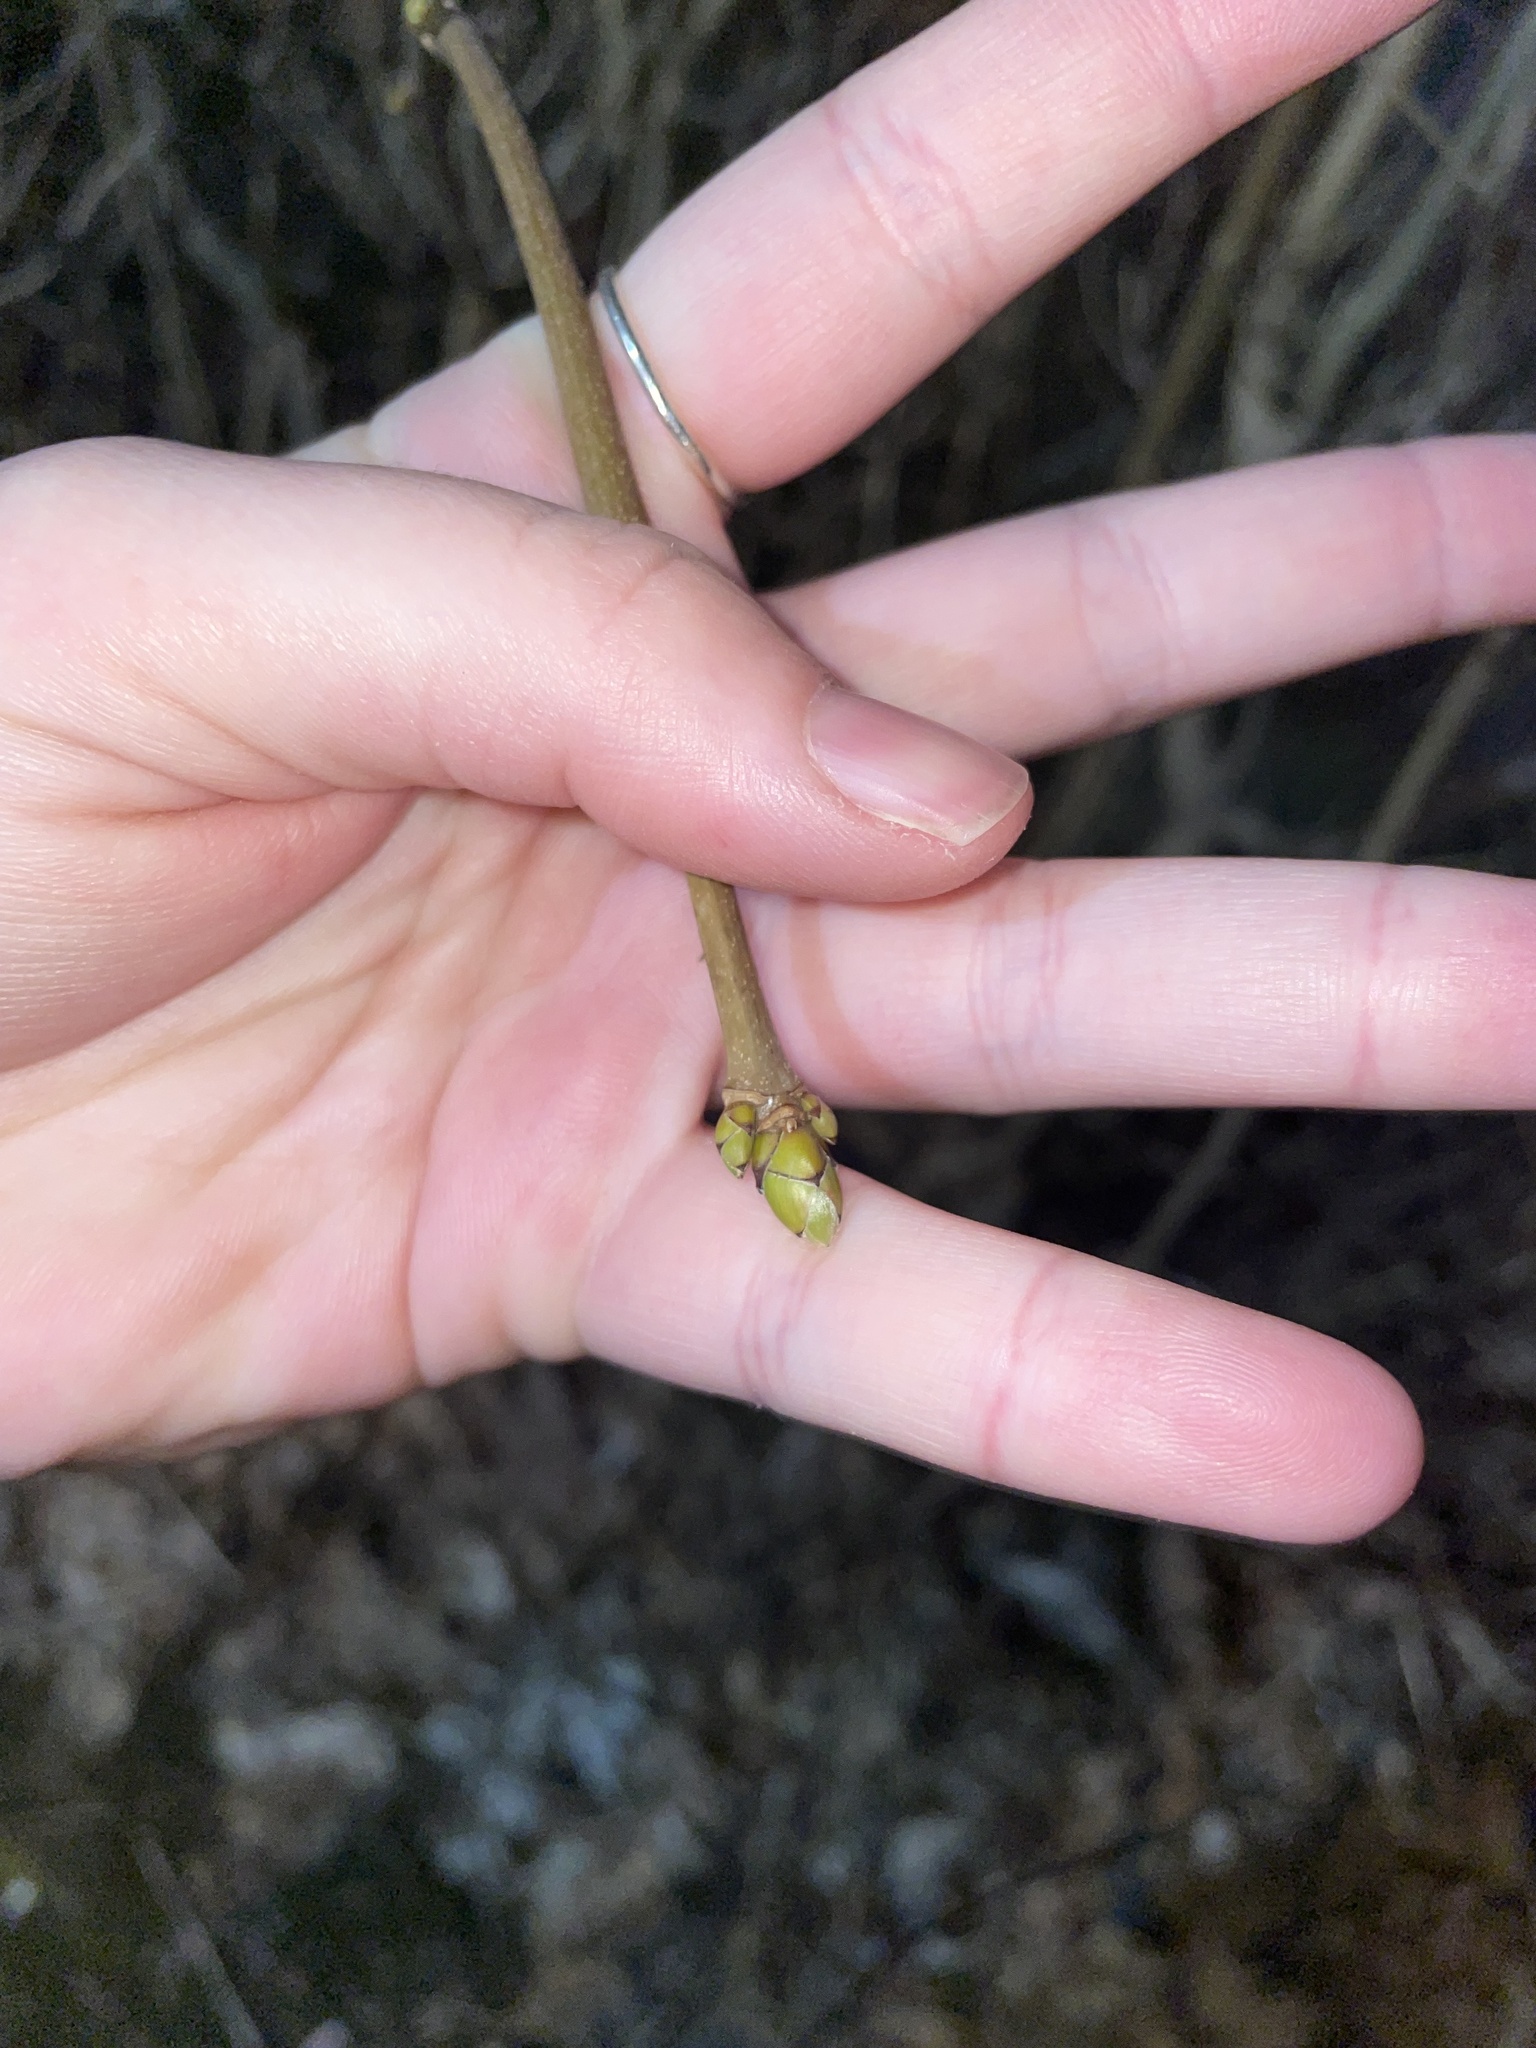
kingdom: Plantae
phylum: Tracheophyta
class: Magnoliopsida
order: Sapindales
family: Sapindaceae
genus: Acer
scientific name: Acer platanoides
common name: Norway maple
